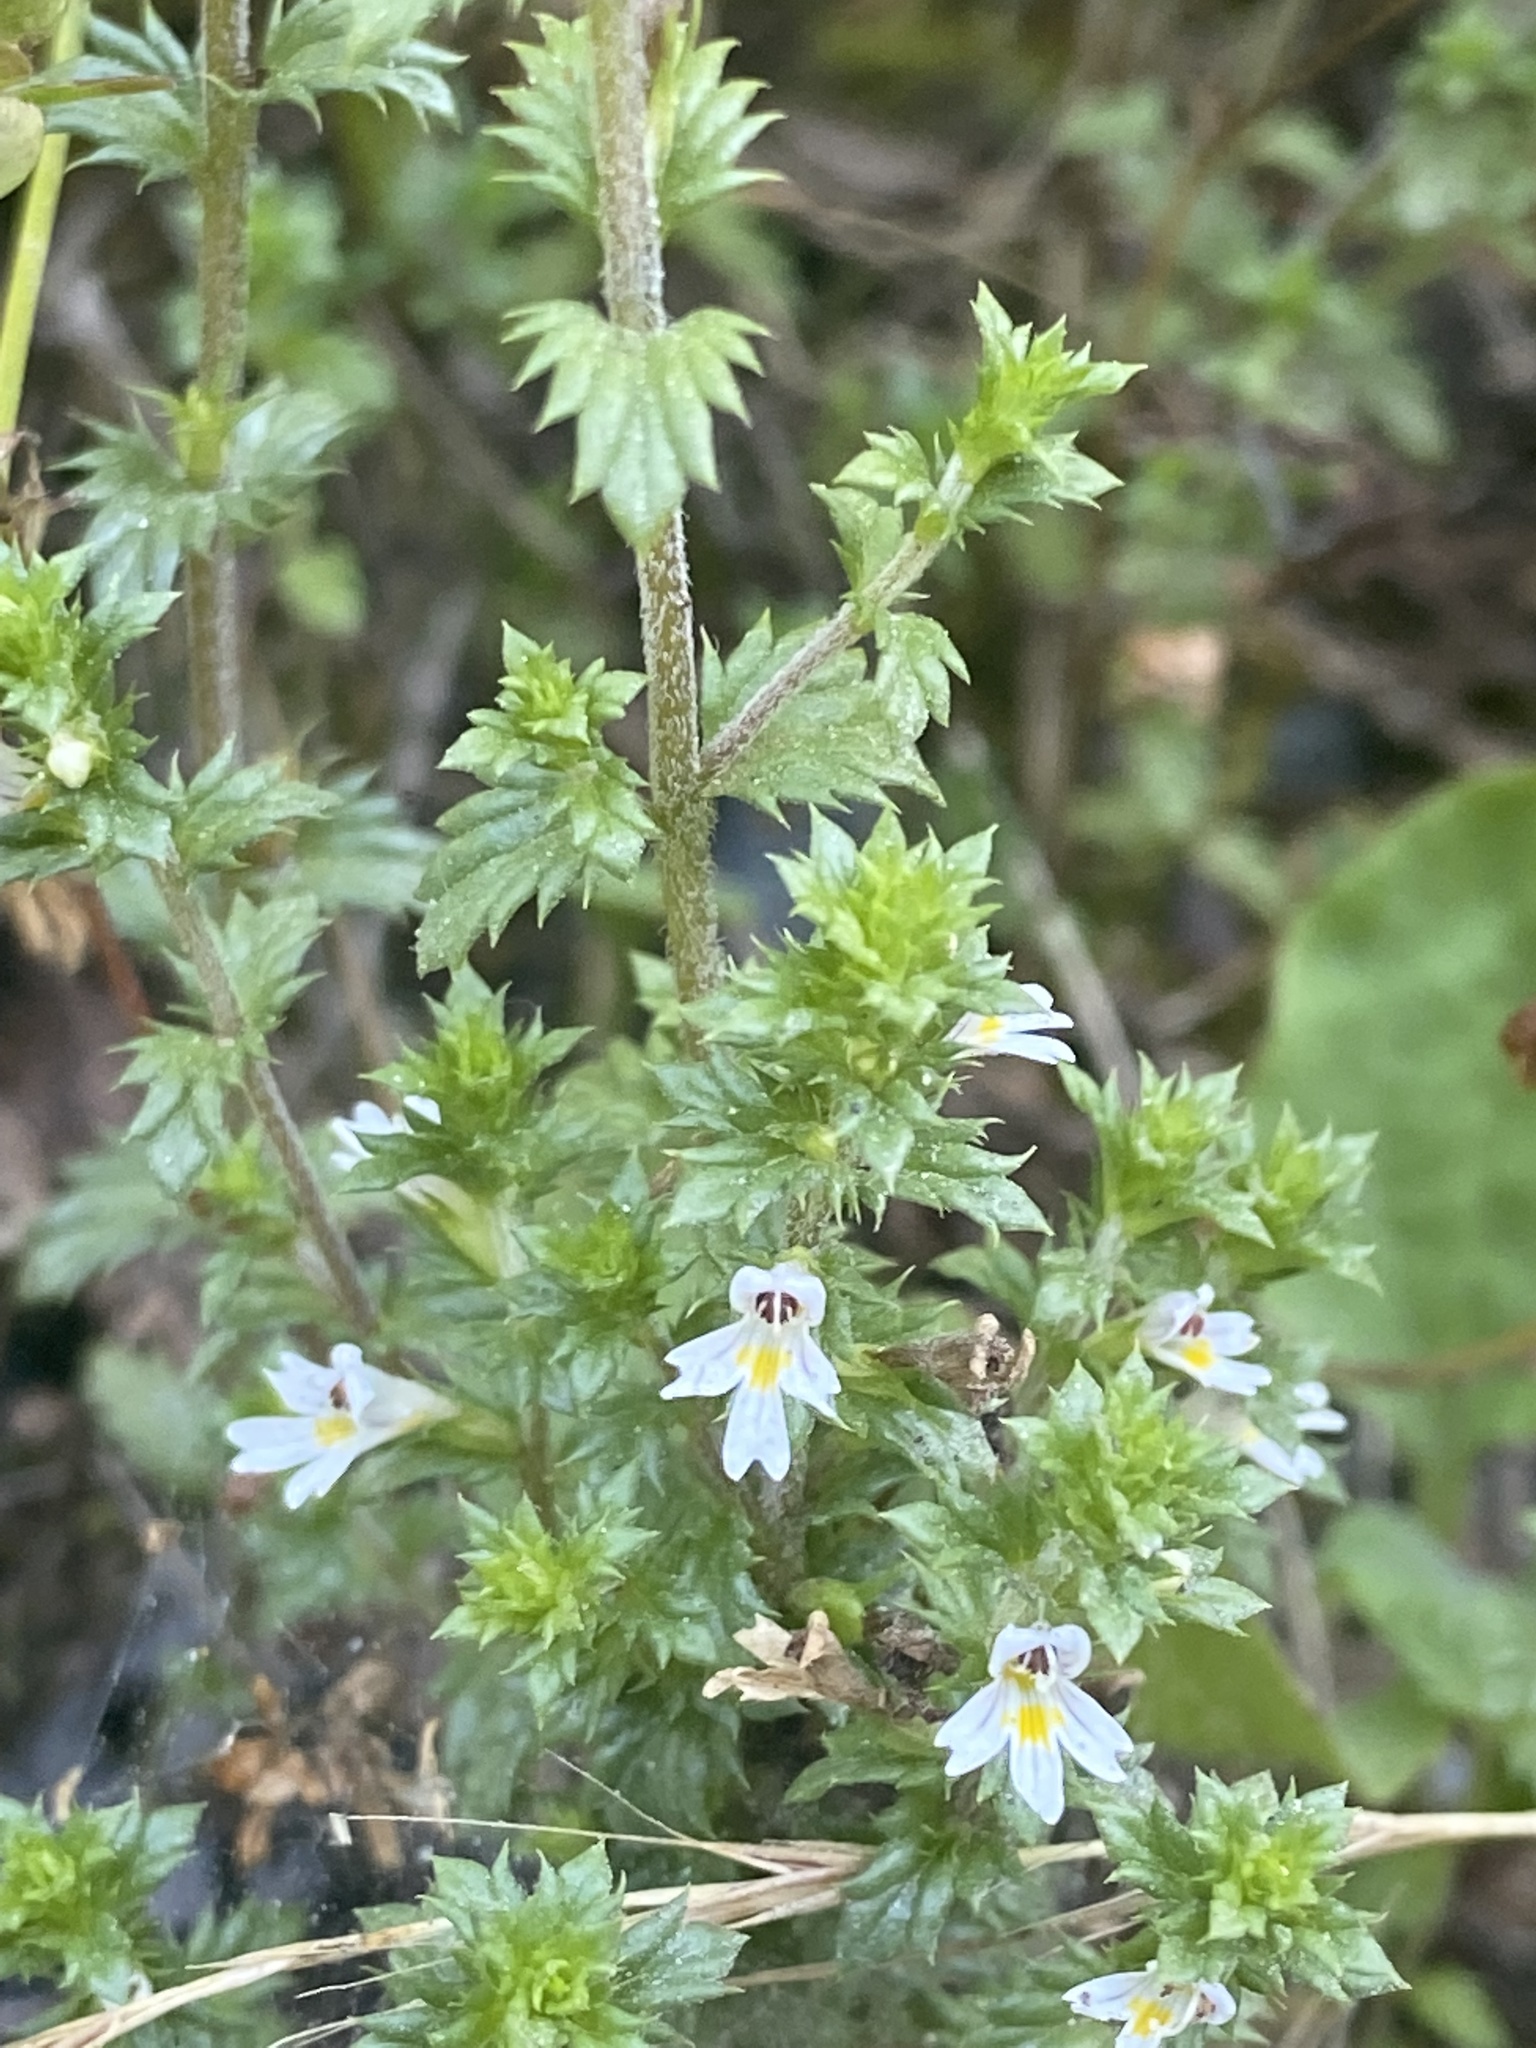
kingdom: Plantae
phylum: Tracheophyta
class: Magnoliopsida
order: Lamiales
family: Orobanchaceae
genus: Euphrasia
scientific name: Euphrasia nemorosa
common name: Common eyebright
